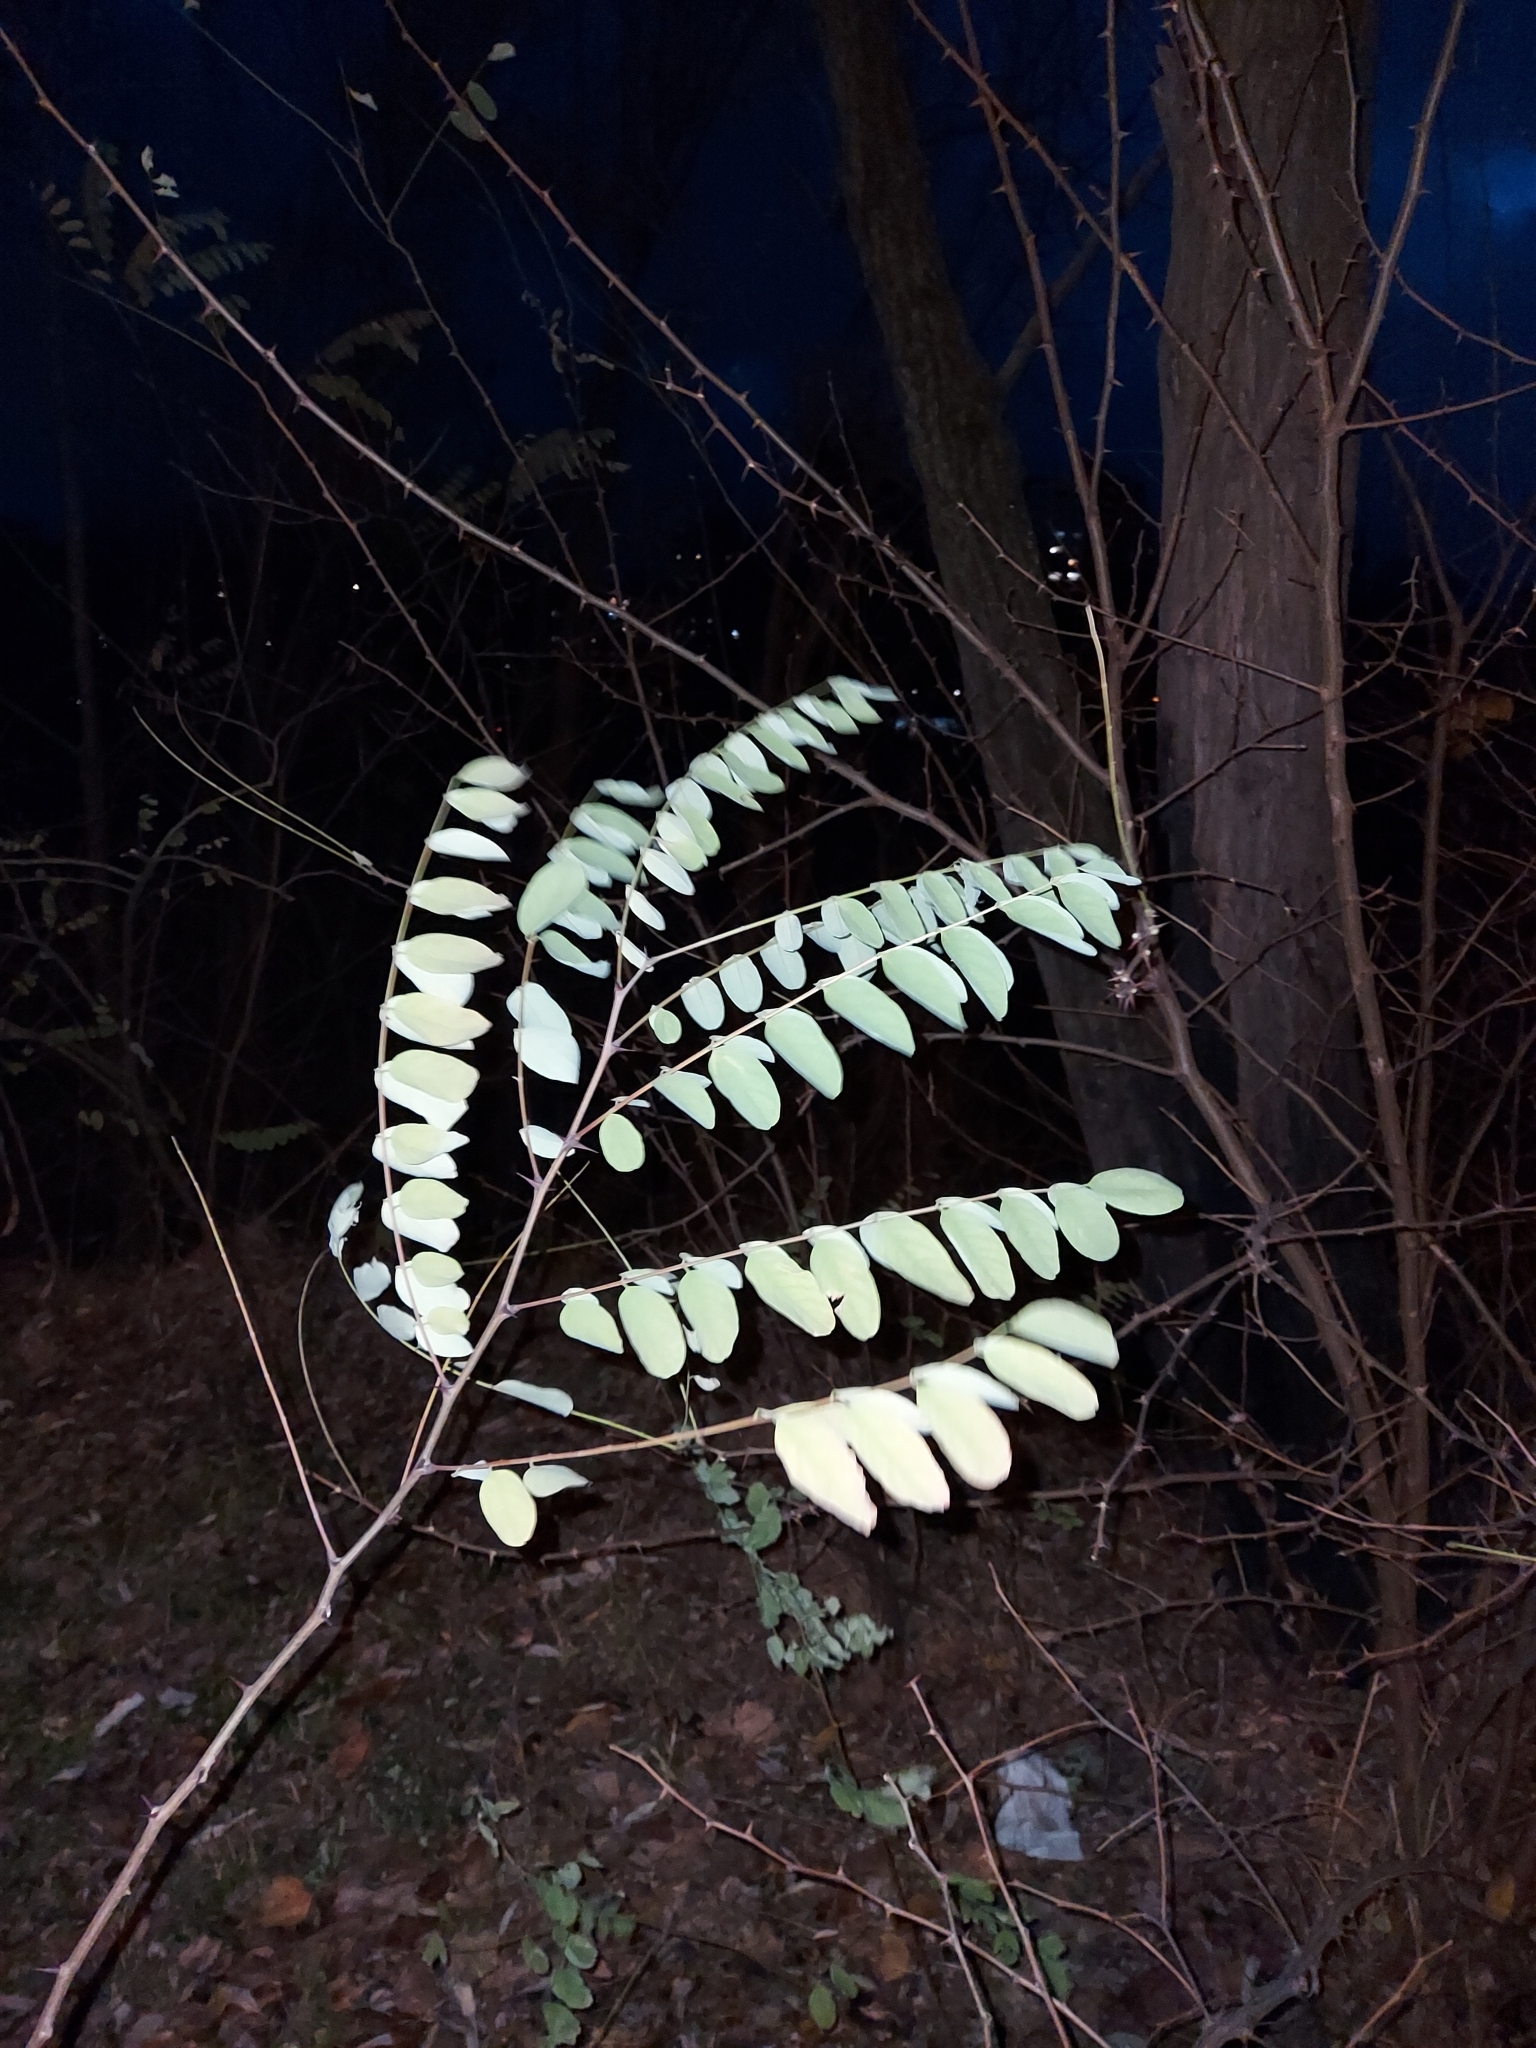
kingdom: Plantae
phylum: Tracheophyta
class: Magnoliopsida
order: Fabales
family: Fabaceae
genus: Robinia
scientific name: Robinia pseudoacacia
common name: Black locust
